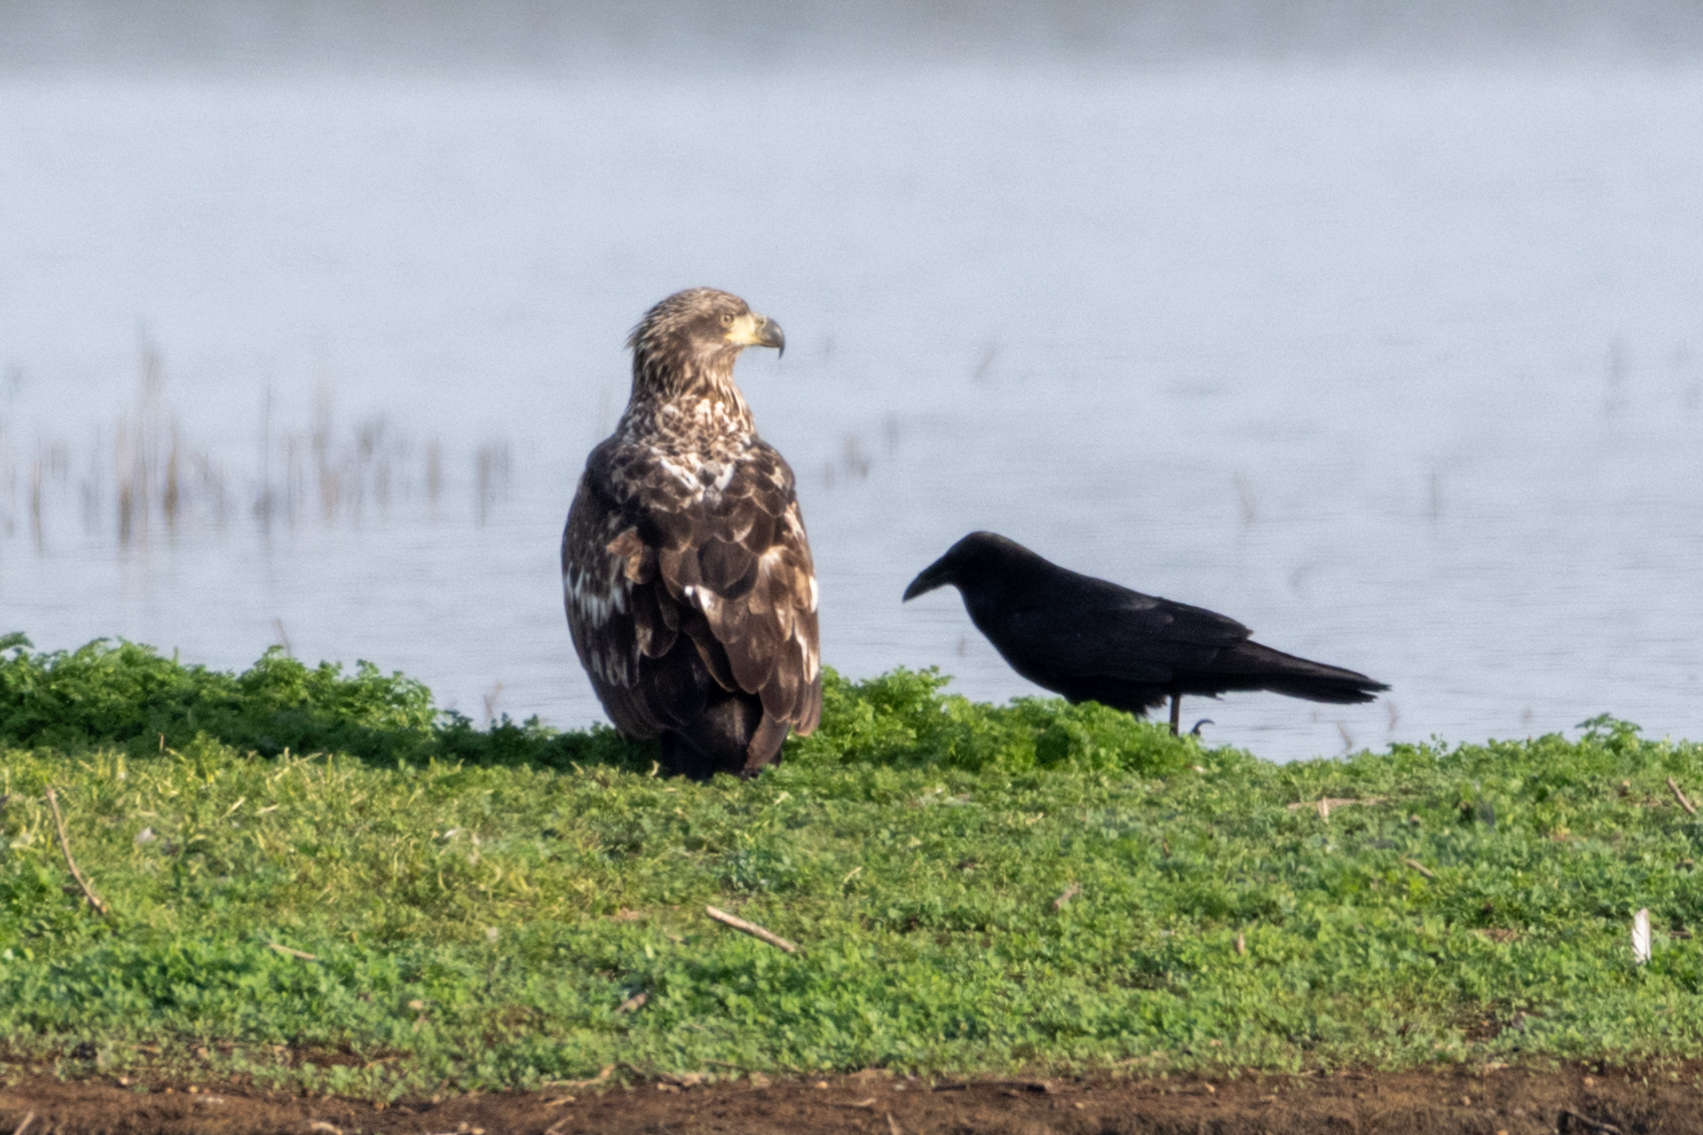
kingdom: Animalia
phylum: Chordata
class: Aves
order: Accipitriformes
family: Accipitridae
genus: Haliaeetus
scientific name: Haliaeetus leucocephalus
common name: Bald eagle
